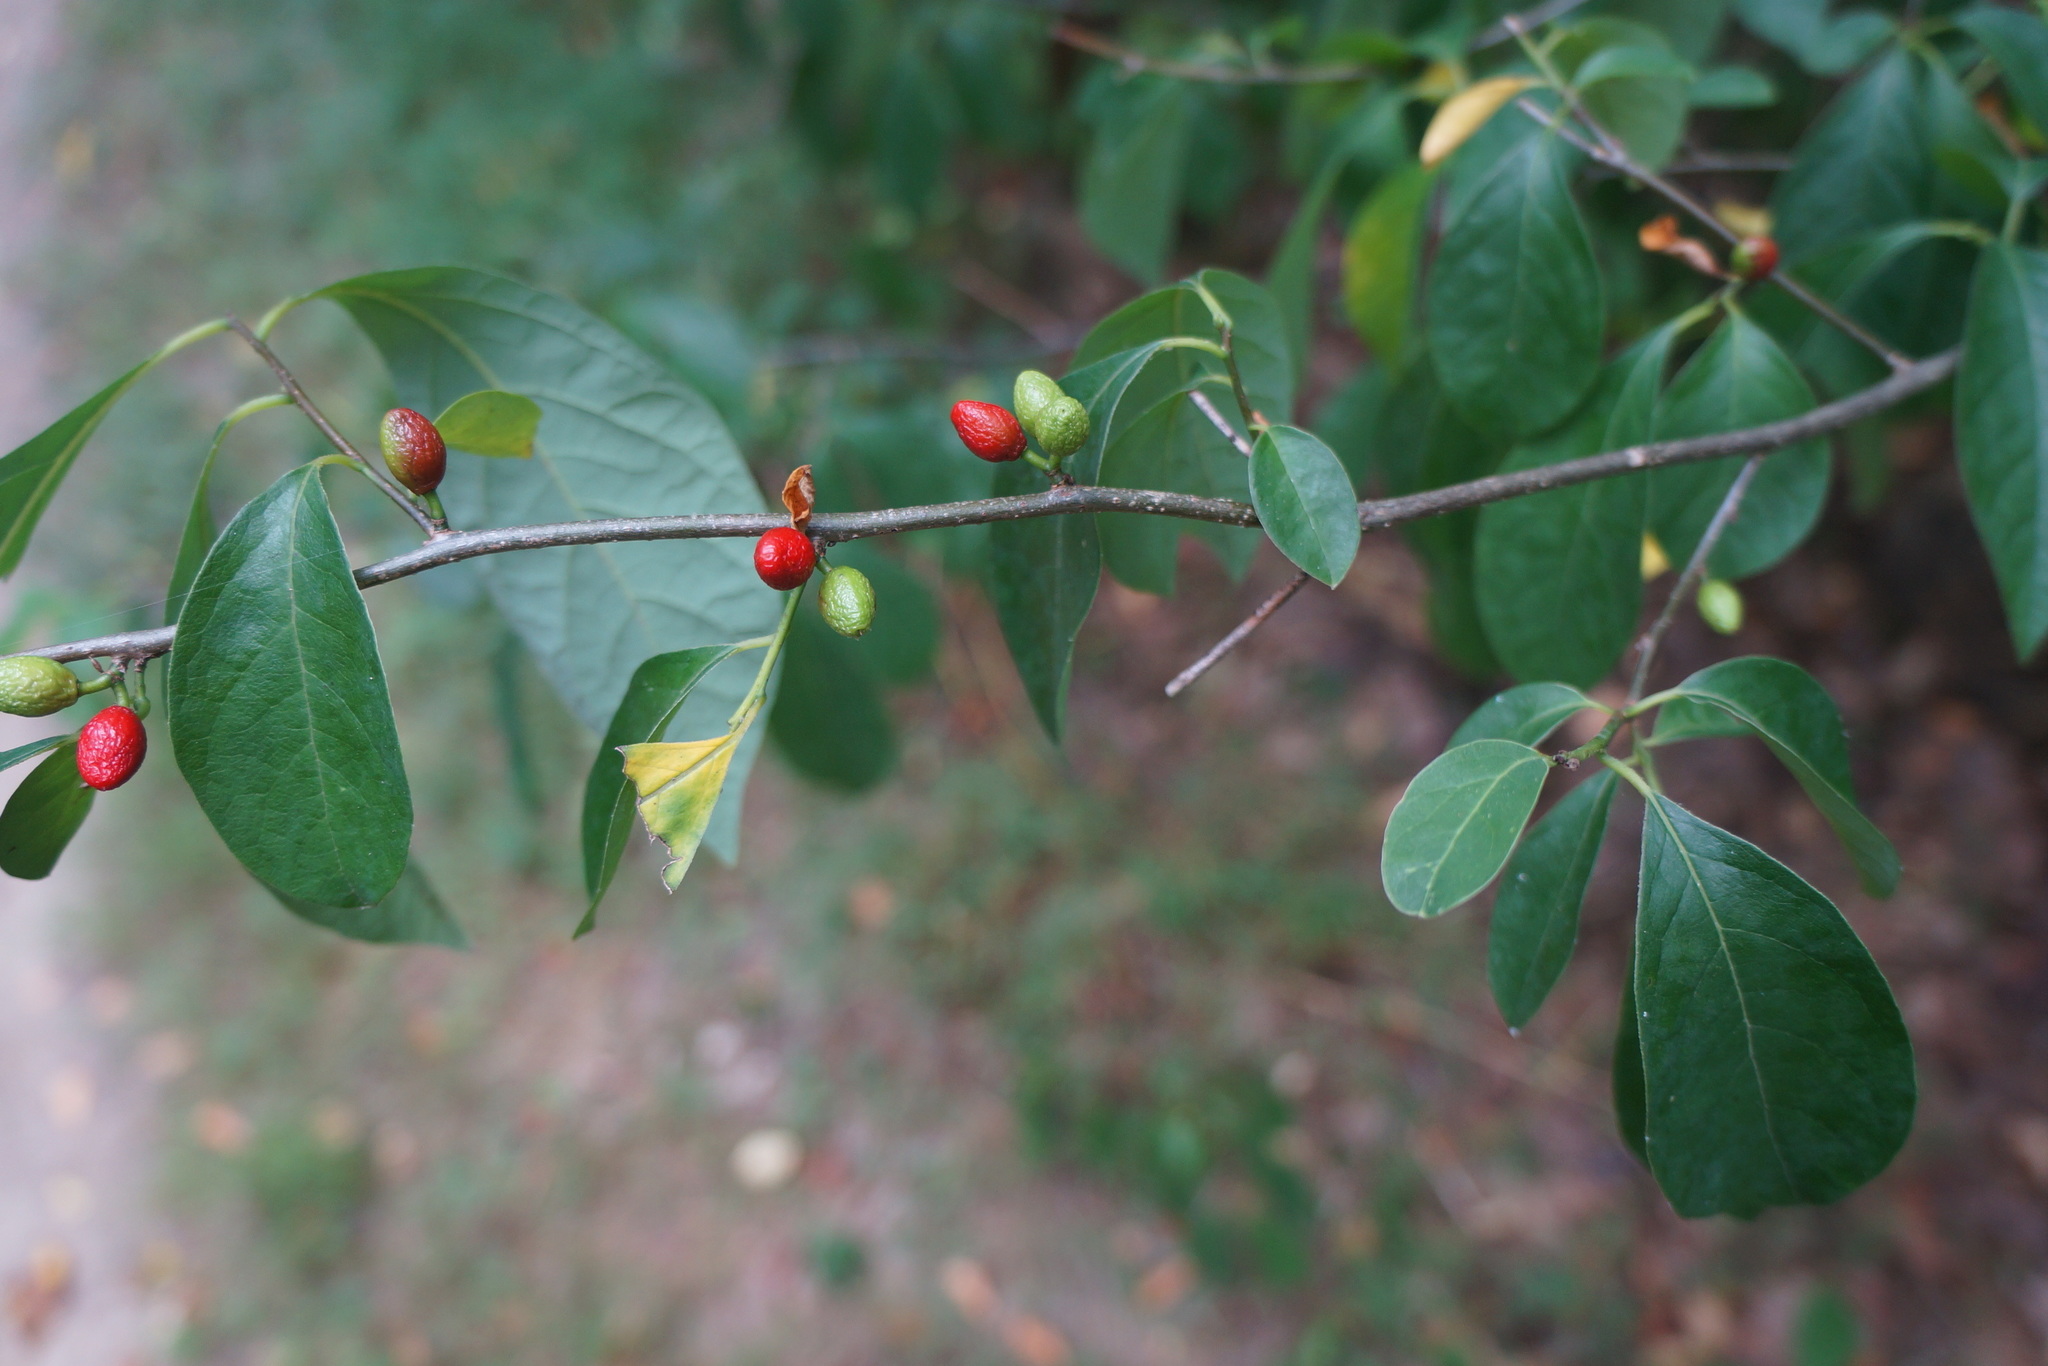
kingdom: Plantae
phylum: Tracheophyta
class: Magnoliopsida
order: Laurales
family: Lauraceae
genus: Lindera
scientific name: Lindera benzoin
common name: Spicebush
